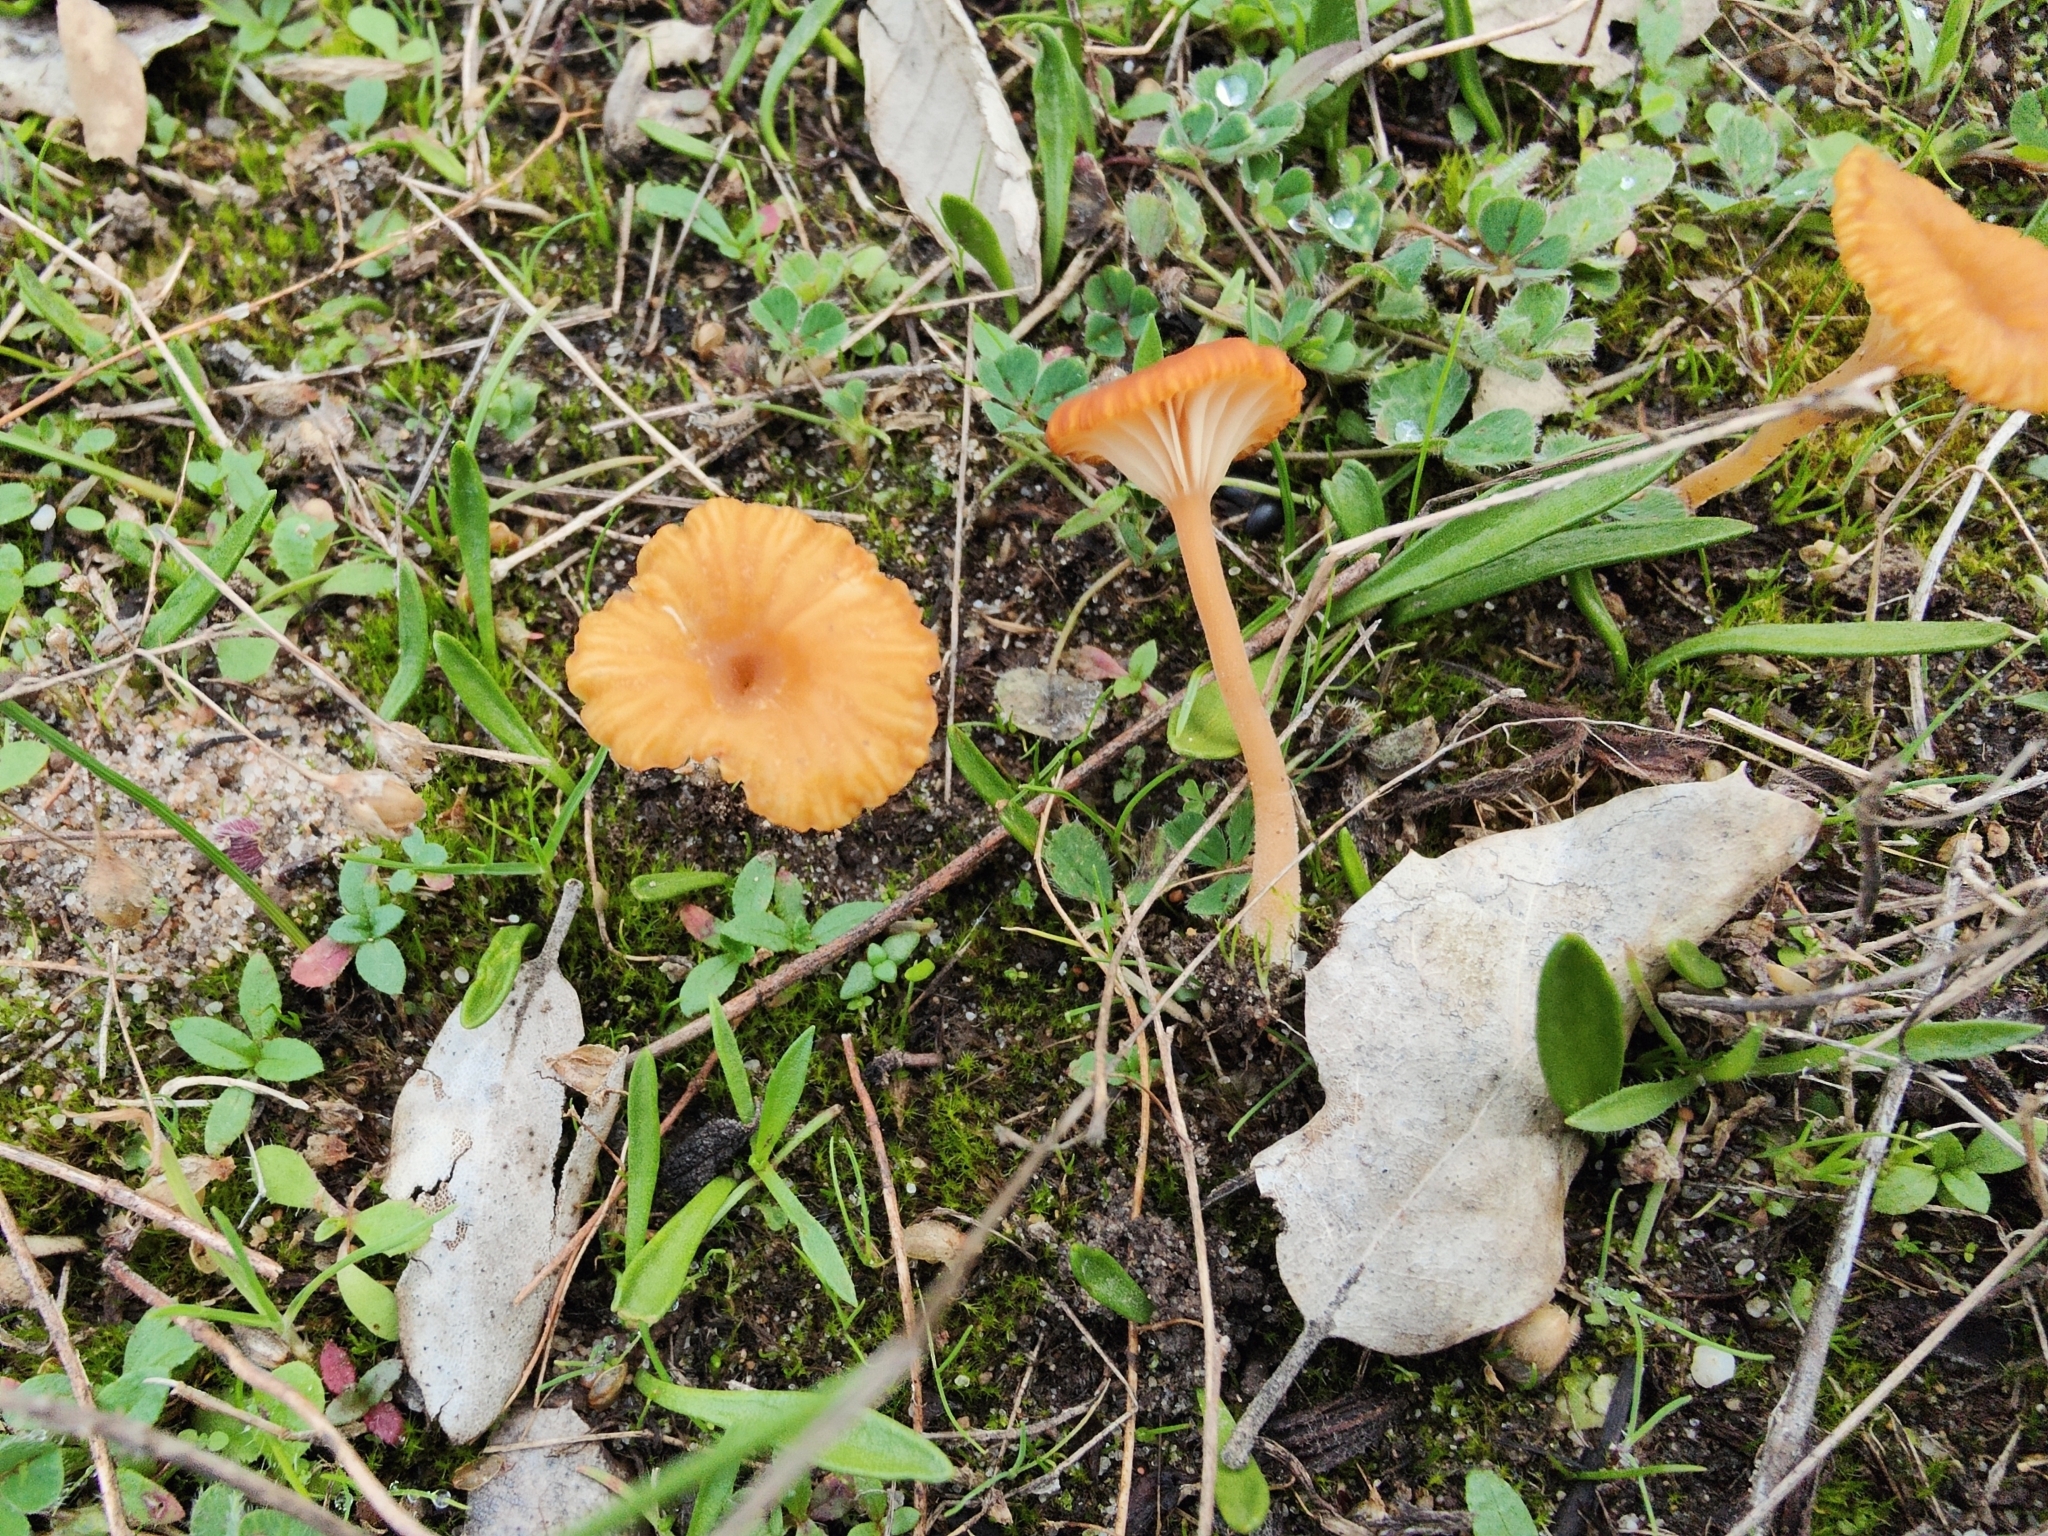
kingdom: Fungi
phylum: Basidiomycota
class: Agaricomycetes
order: Hymenochaetales
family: Rickenellaceae
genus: Contumyces
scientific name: Contumyces vesuvianus
